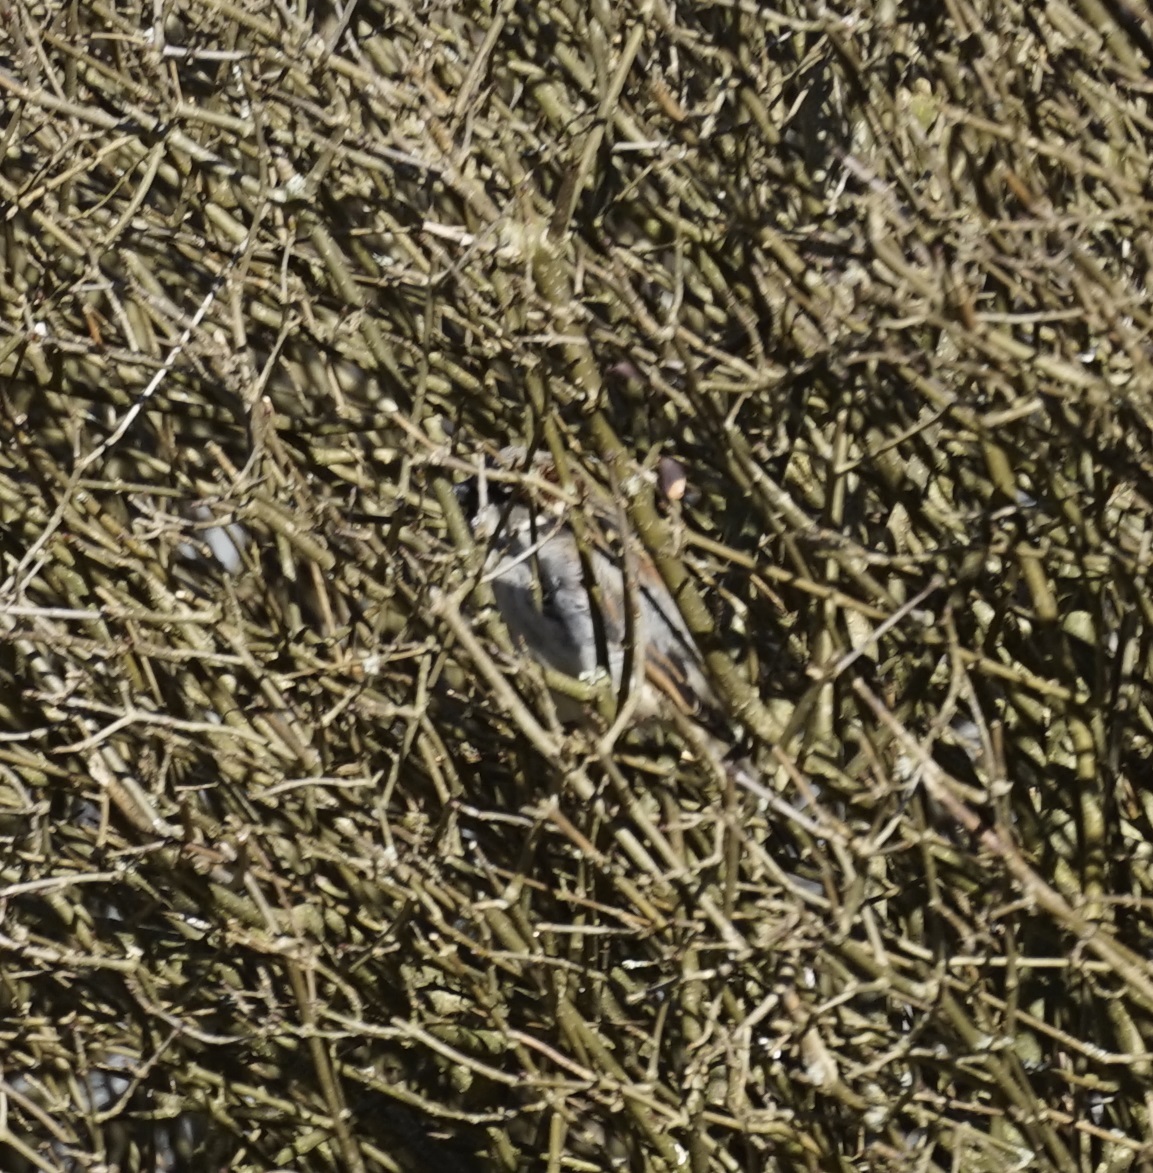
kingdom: Animalia
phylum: Chordata
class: Aves
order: Passeriformes
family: Passeridae
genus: Passer
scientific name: Passer domesticus
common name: House sparrow
